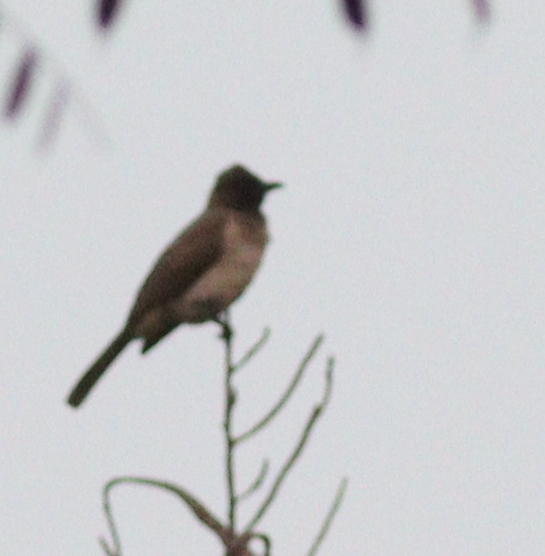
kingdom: Animalia
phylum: Chordata
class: Aves
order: Passeriformes
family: Pycnonotidae
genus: Pycnonotus
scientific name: Pycnonotus barbatus
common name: Common bulbul
